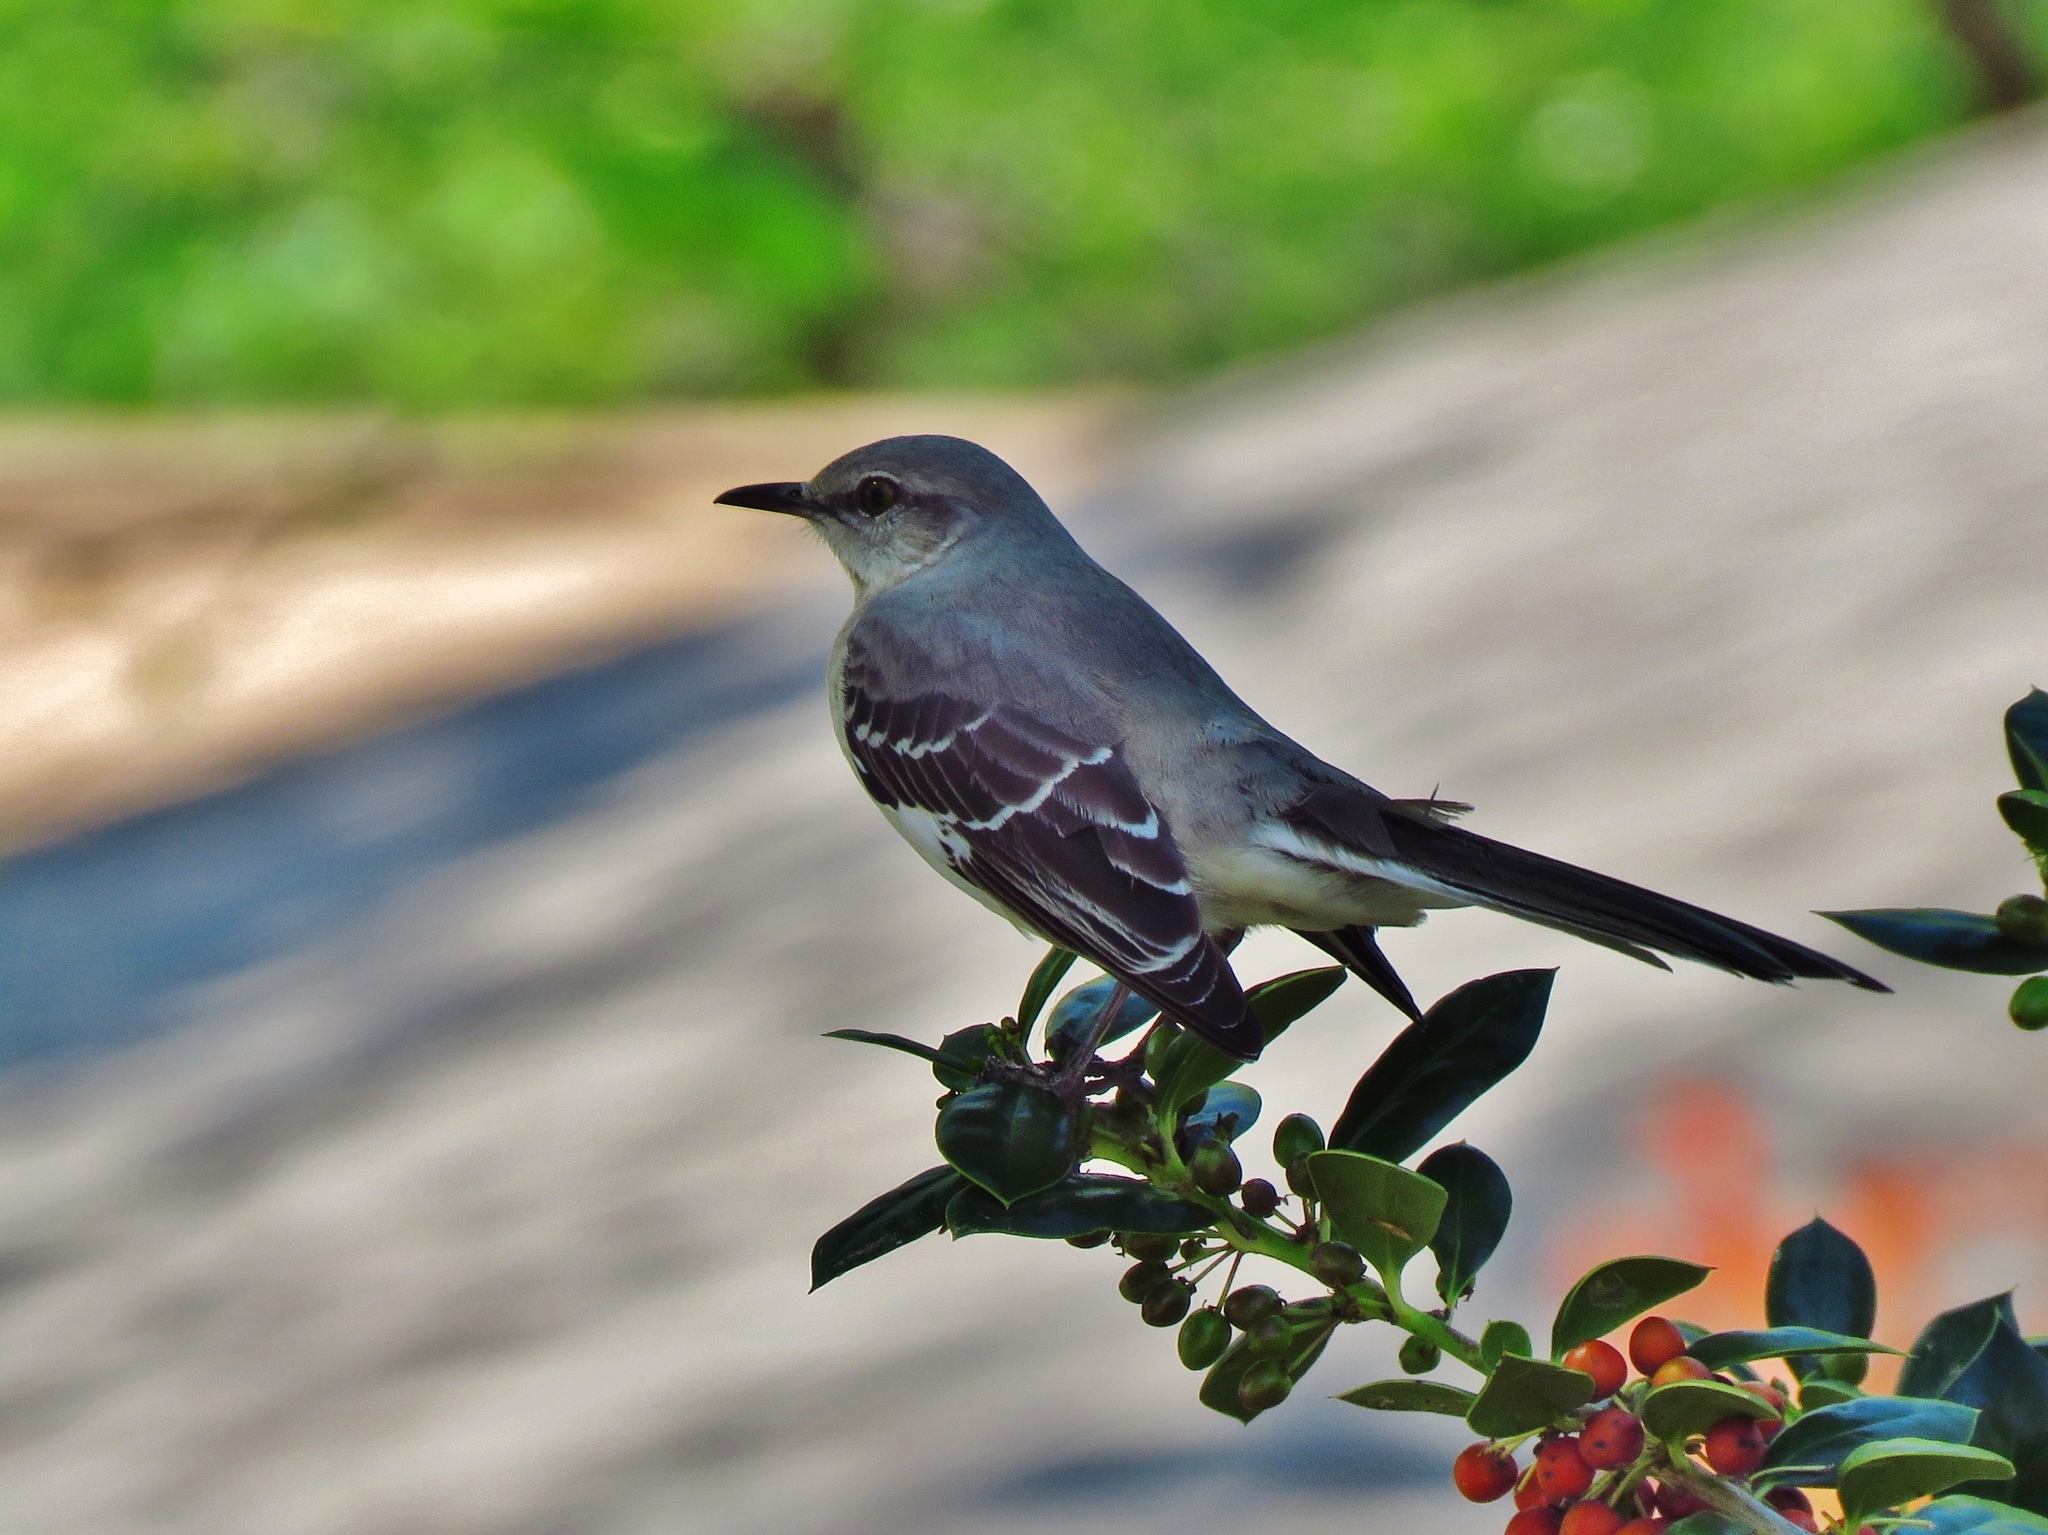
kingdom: Animalia
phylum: Chordata
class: Aves
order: Passeriformes
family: Mimidae
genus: Mimus
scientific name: Mimus polyglottos
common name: Northern mockingbird
